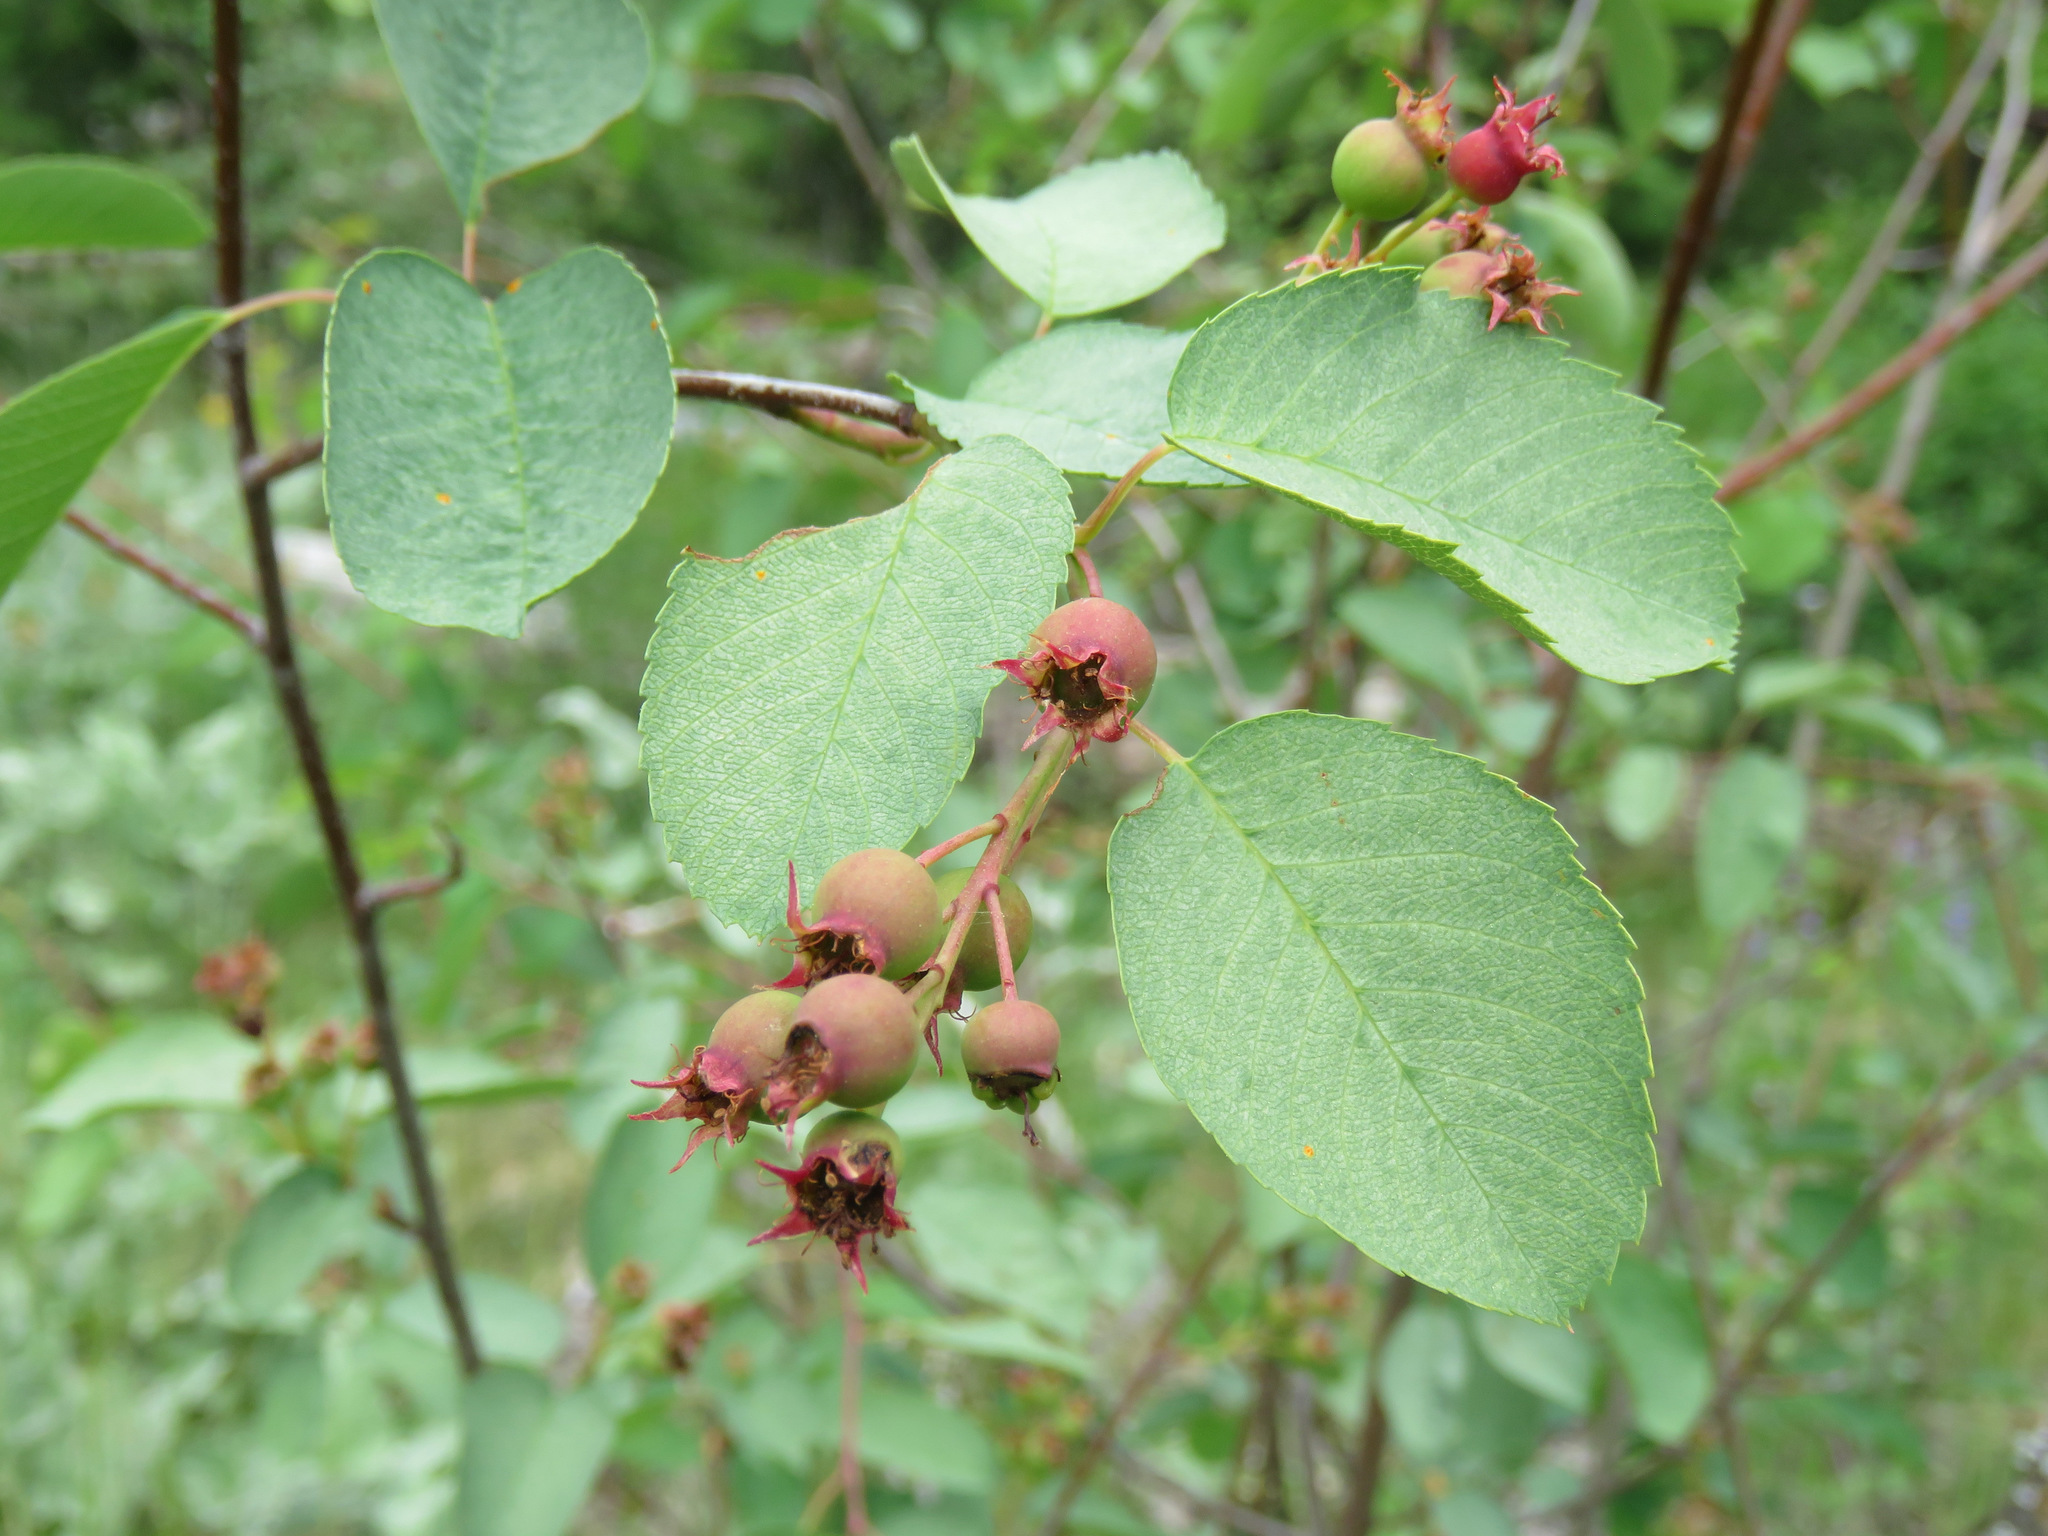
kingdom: Plantae
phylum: Tracheophyta
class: Magnoliopsida
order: Rosales
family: Rosaceae
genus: Amelanchier
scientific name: Amelanchier alnifolia
